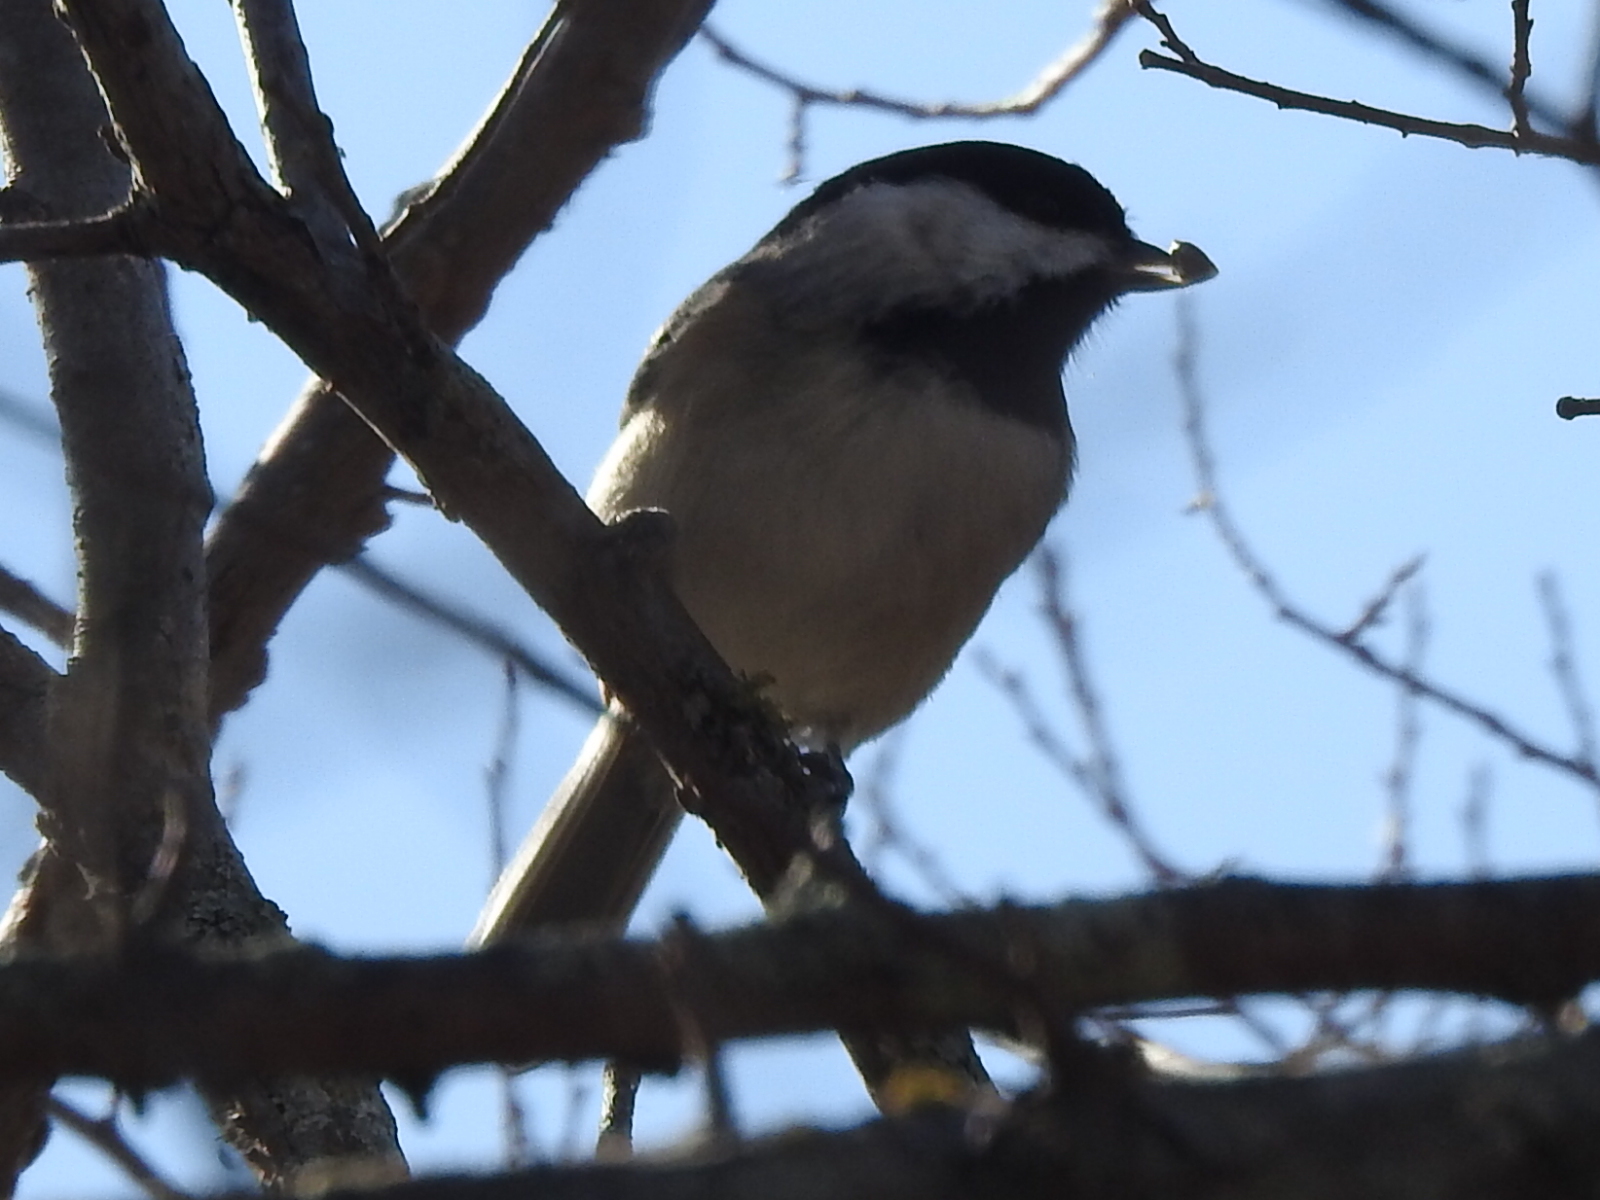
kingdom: Animalia
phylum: Chordata
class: Aves
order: Passeriformes
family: Paridae
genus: Poecile
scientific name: Poecile carolinensis
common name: Carolina chickadee
